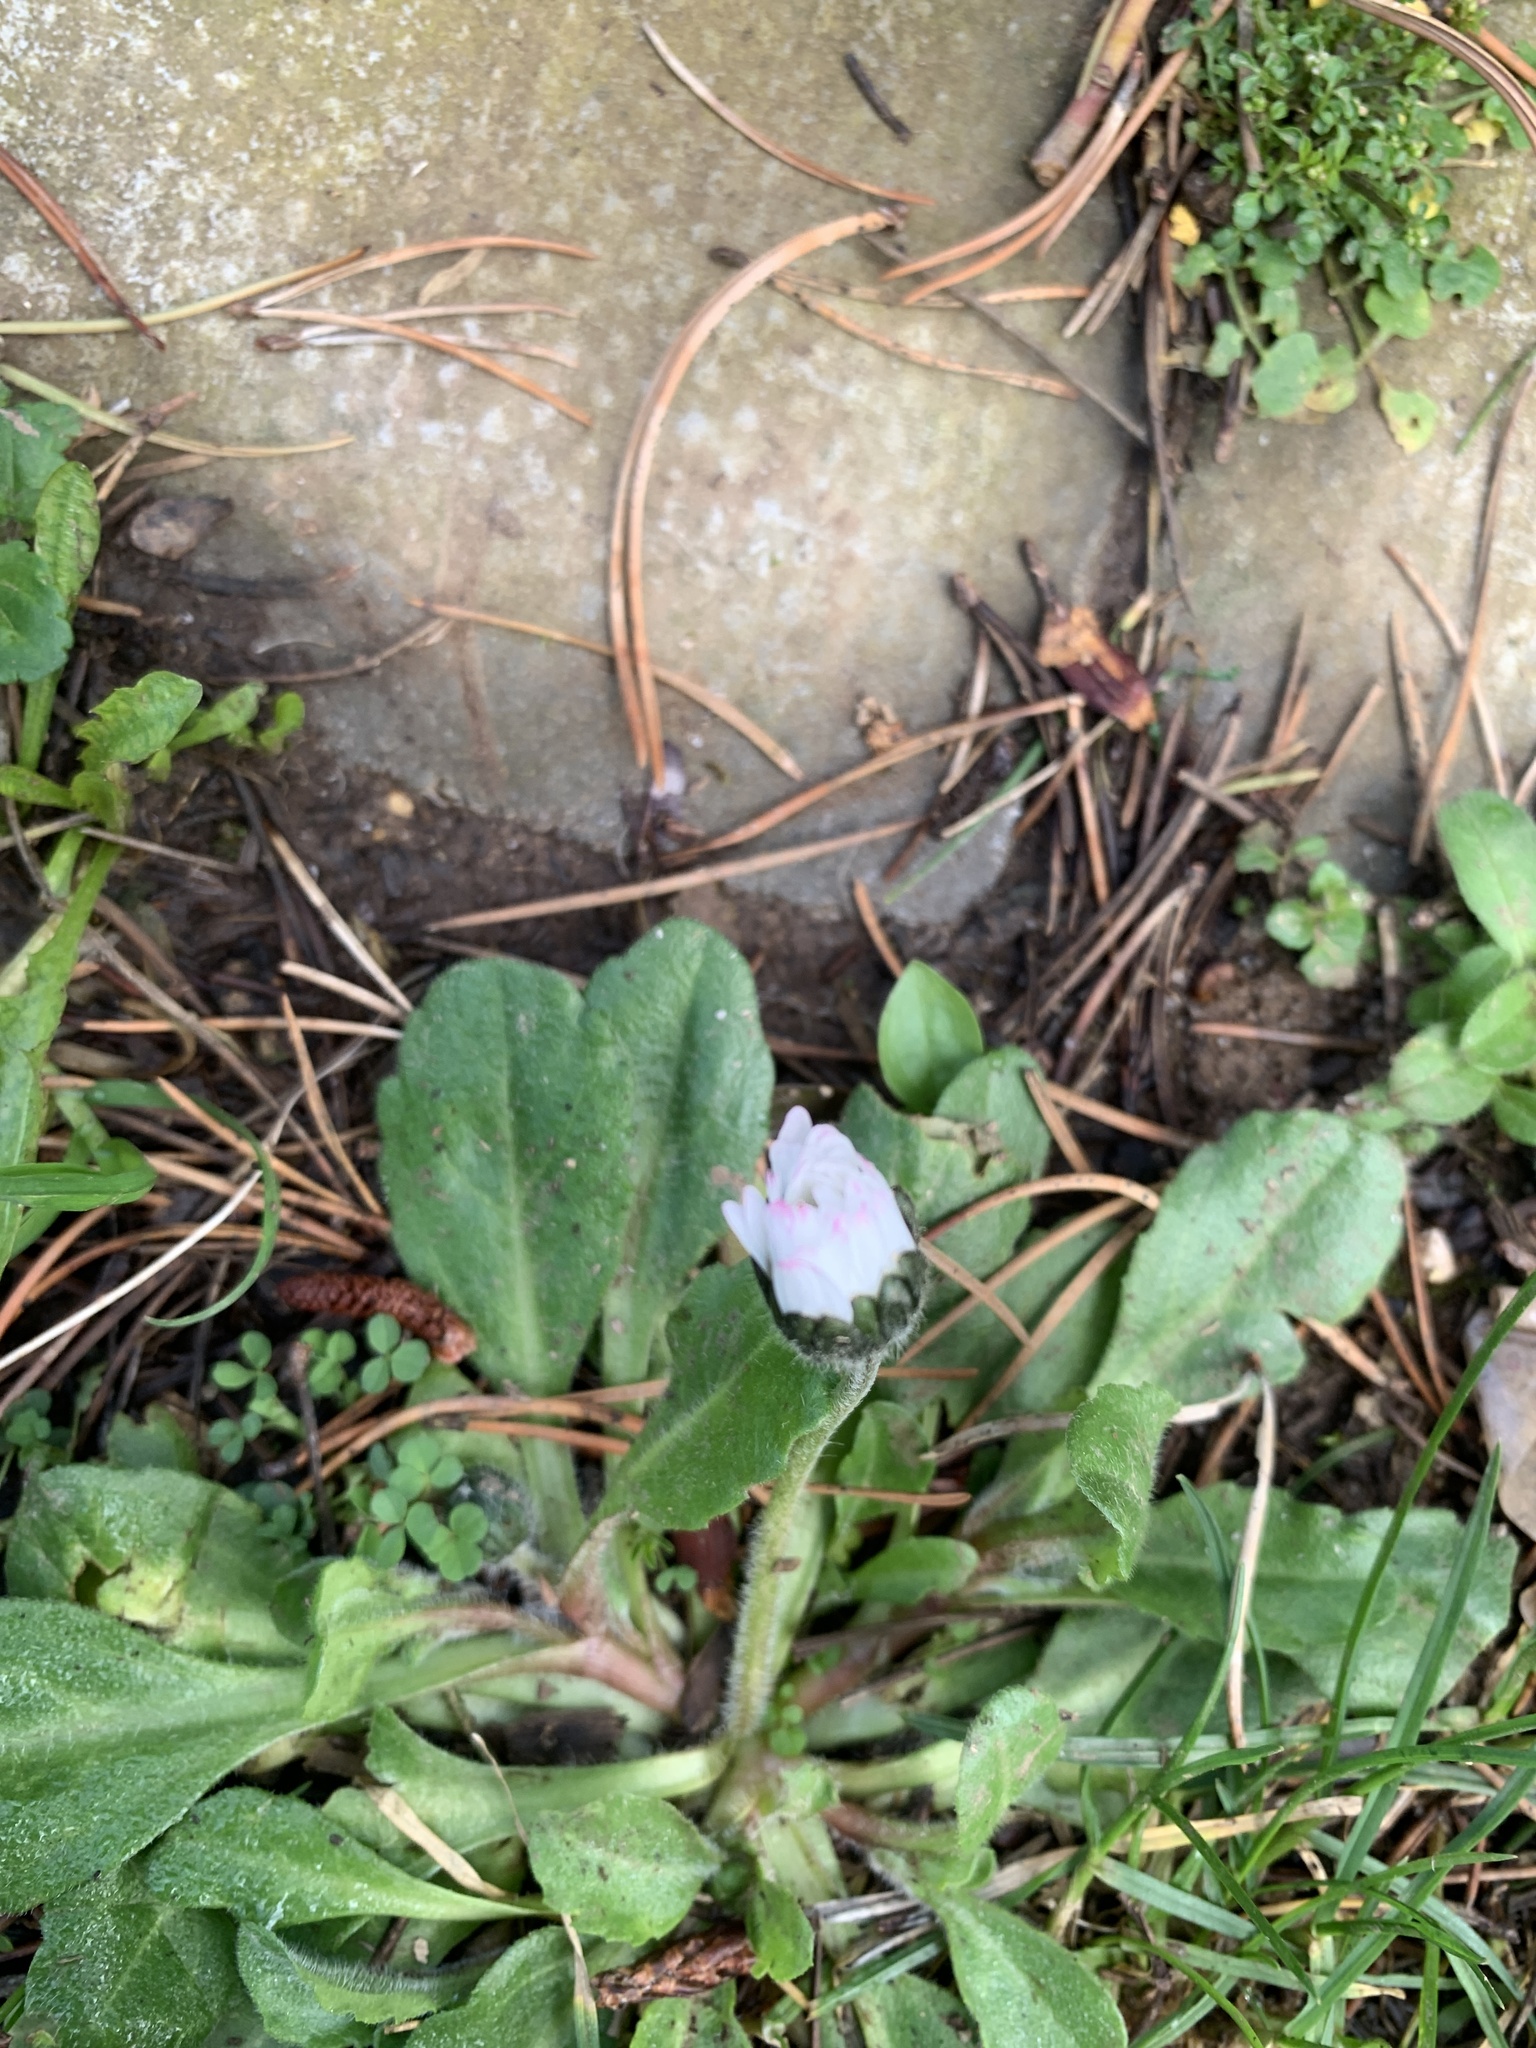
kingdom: Plantae
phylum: Tracheophyta
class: Magnoliopsida
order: Asterales
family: Asteraceae
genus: Bellis
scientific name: Bellis perennis
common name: Lawndaisy
